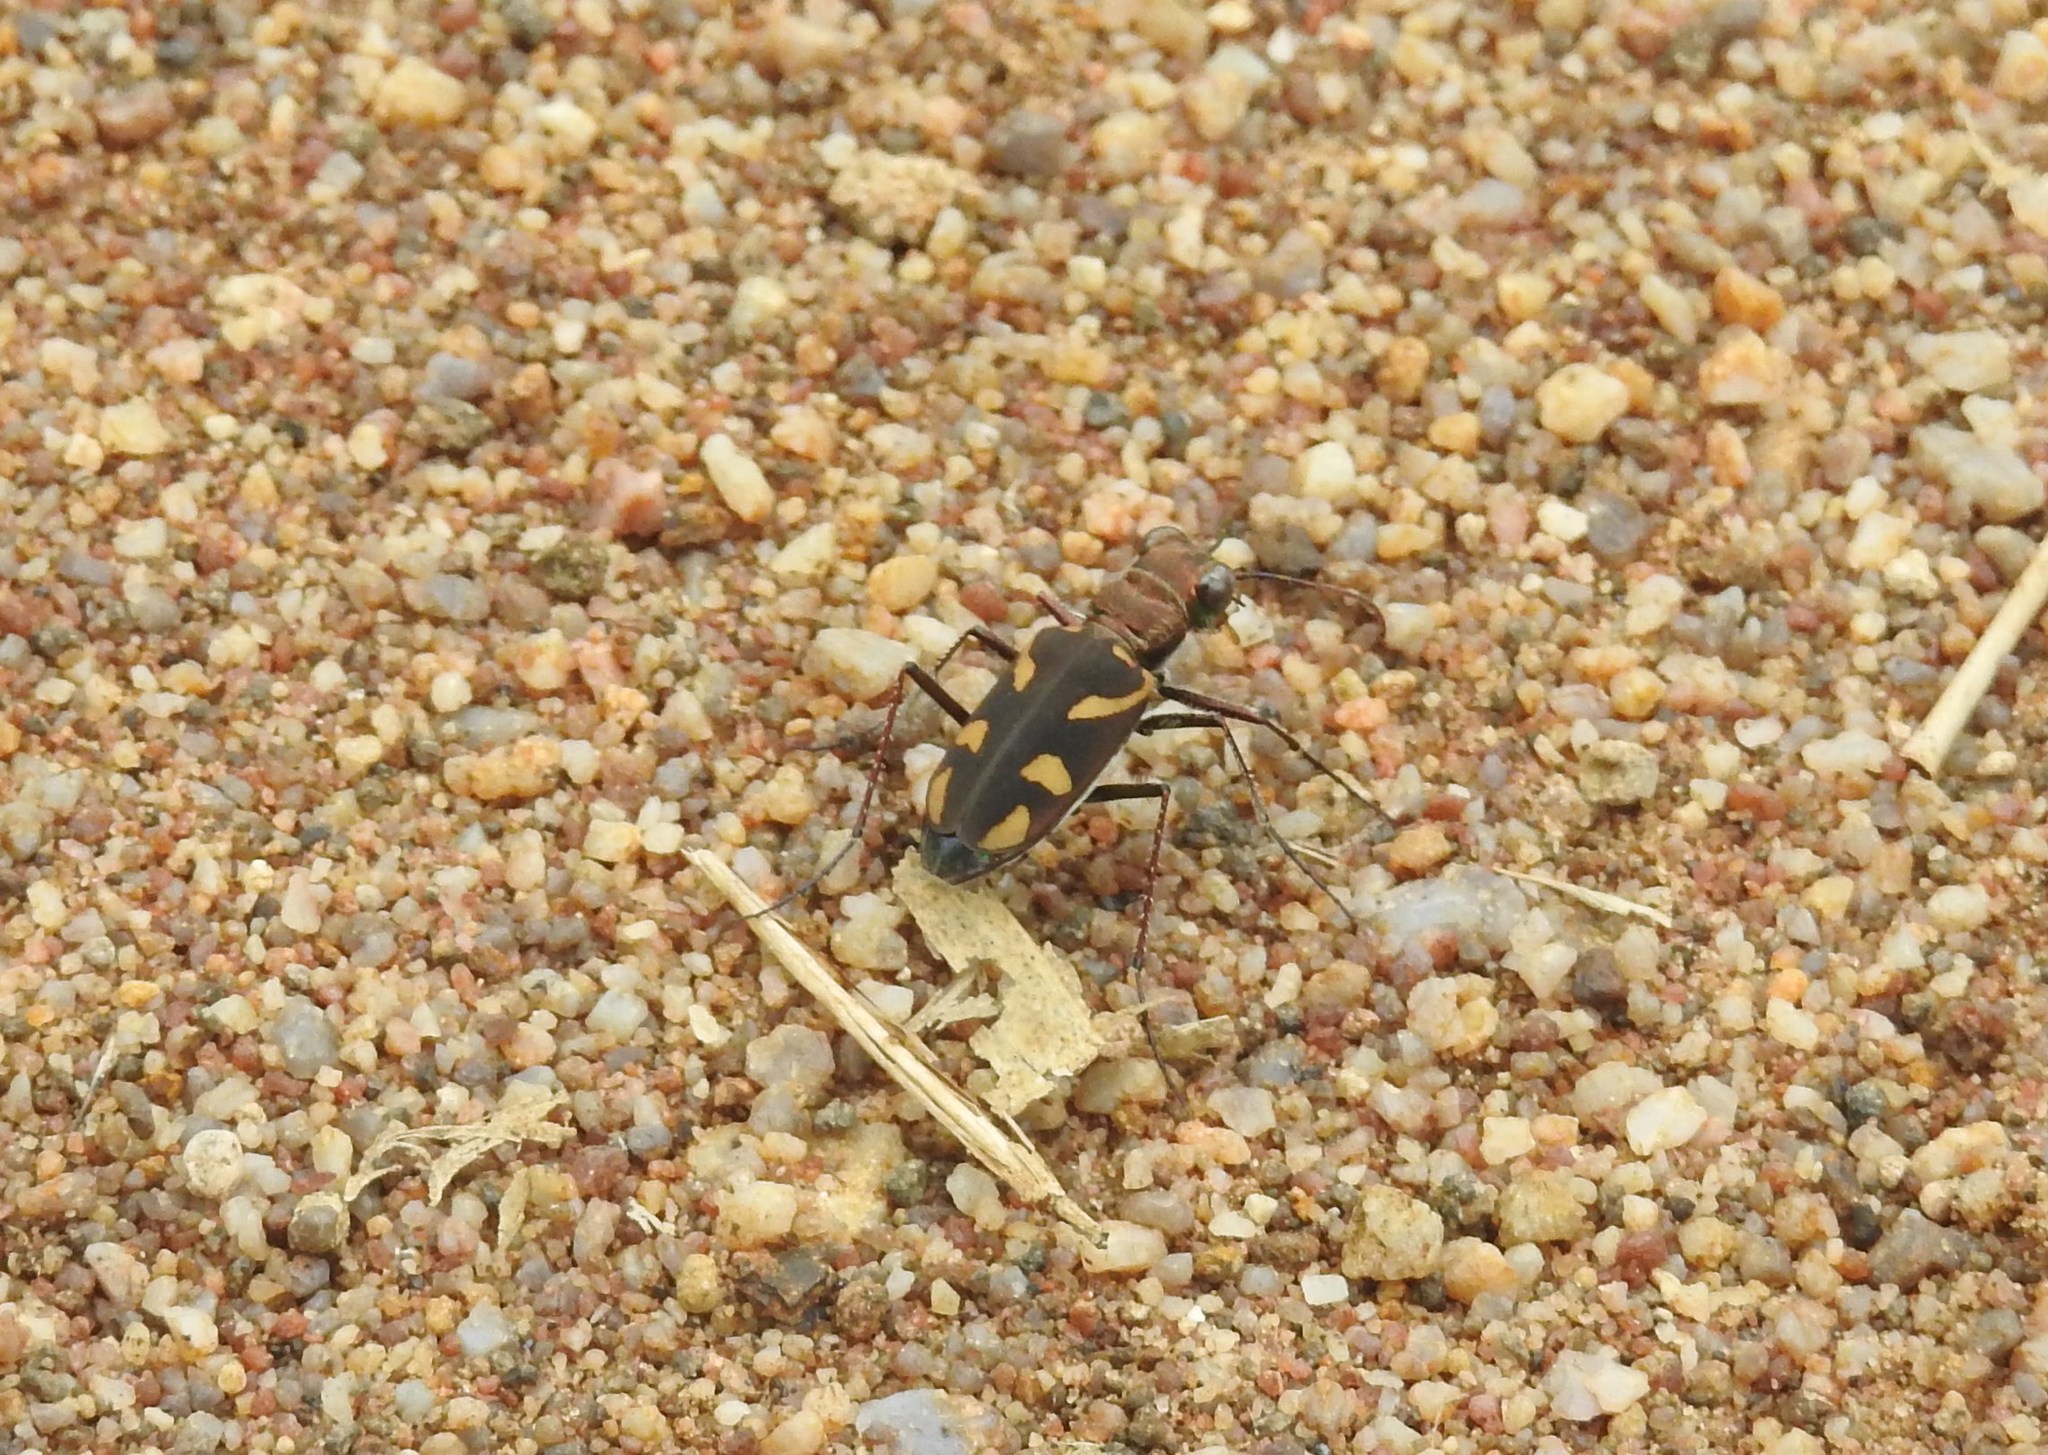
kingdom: Animalia
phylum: Arthropoda
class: Insecta
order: Coleoptera
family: Carabidae
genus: Cicindela
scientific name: Cicindela calligramma
